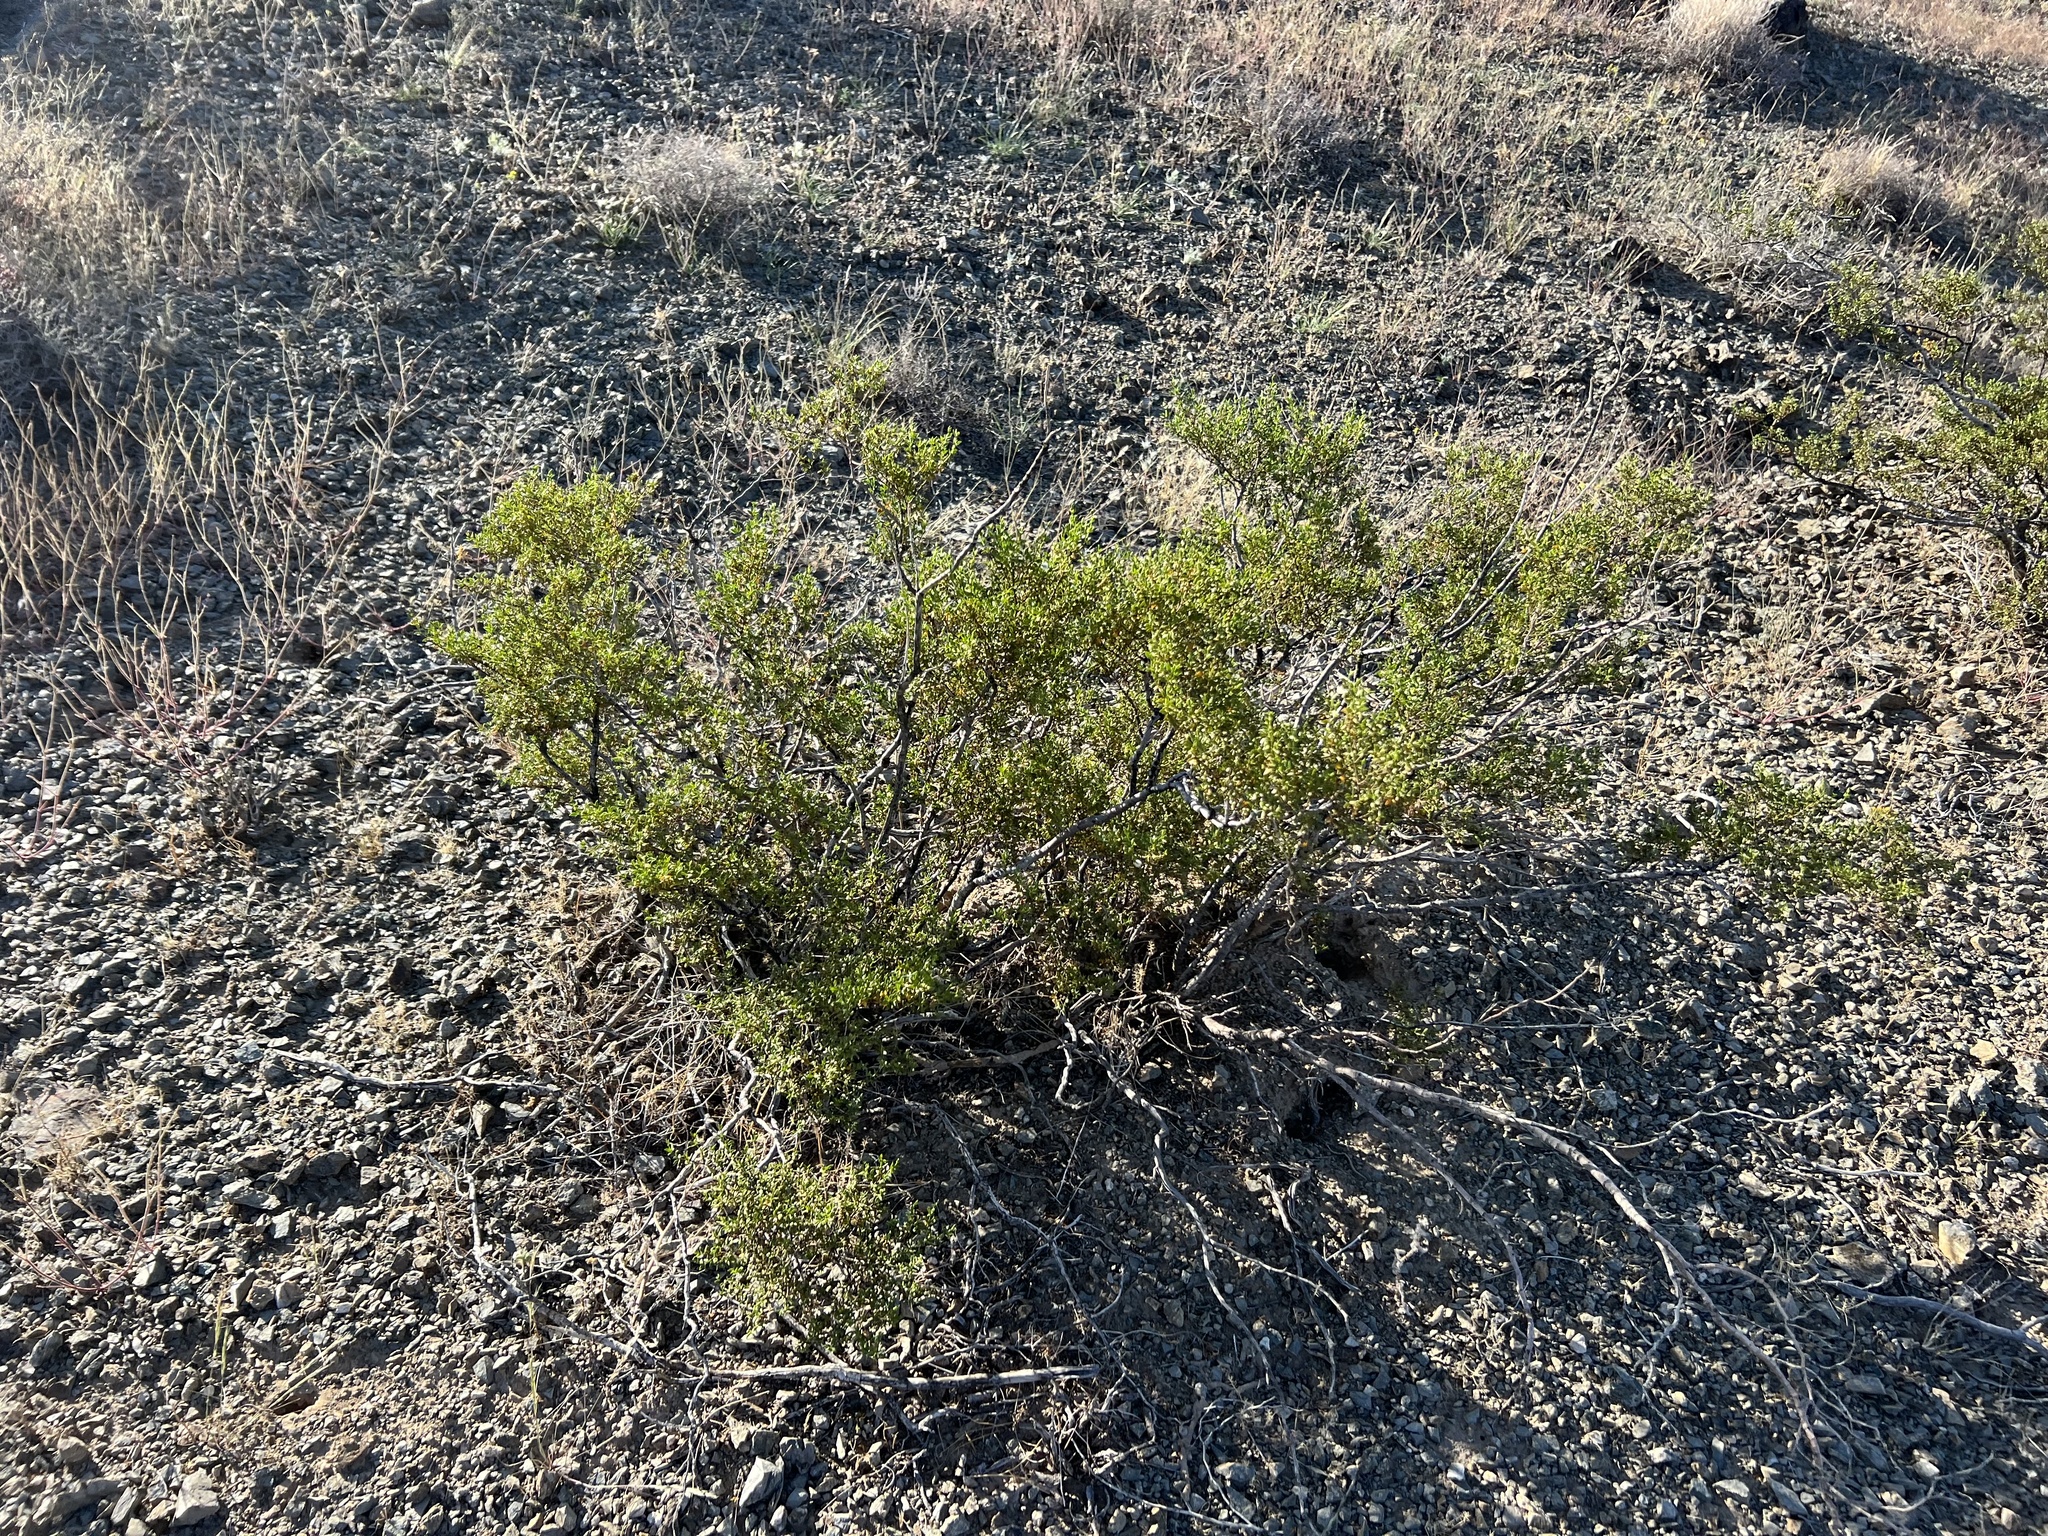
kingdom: Plantae
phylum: Tracheophyta
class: Magnoliopsida
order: Zygophyllales
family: Zygophyllaceae
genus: Larrea
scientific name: Larrea tridentata
